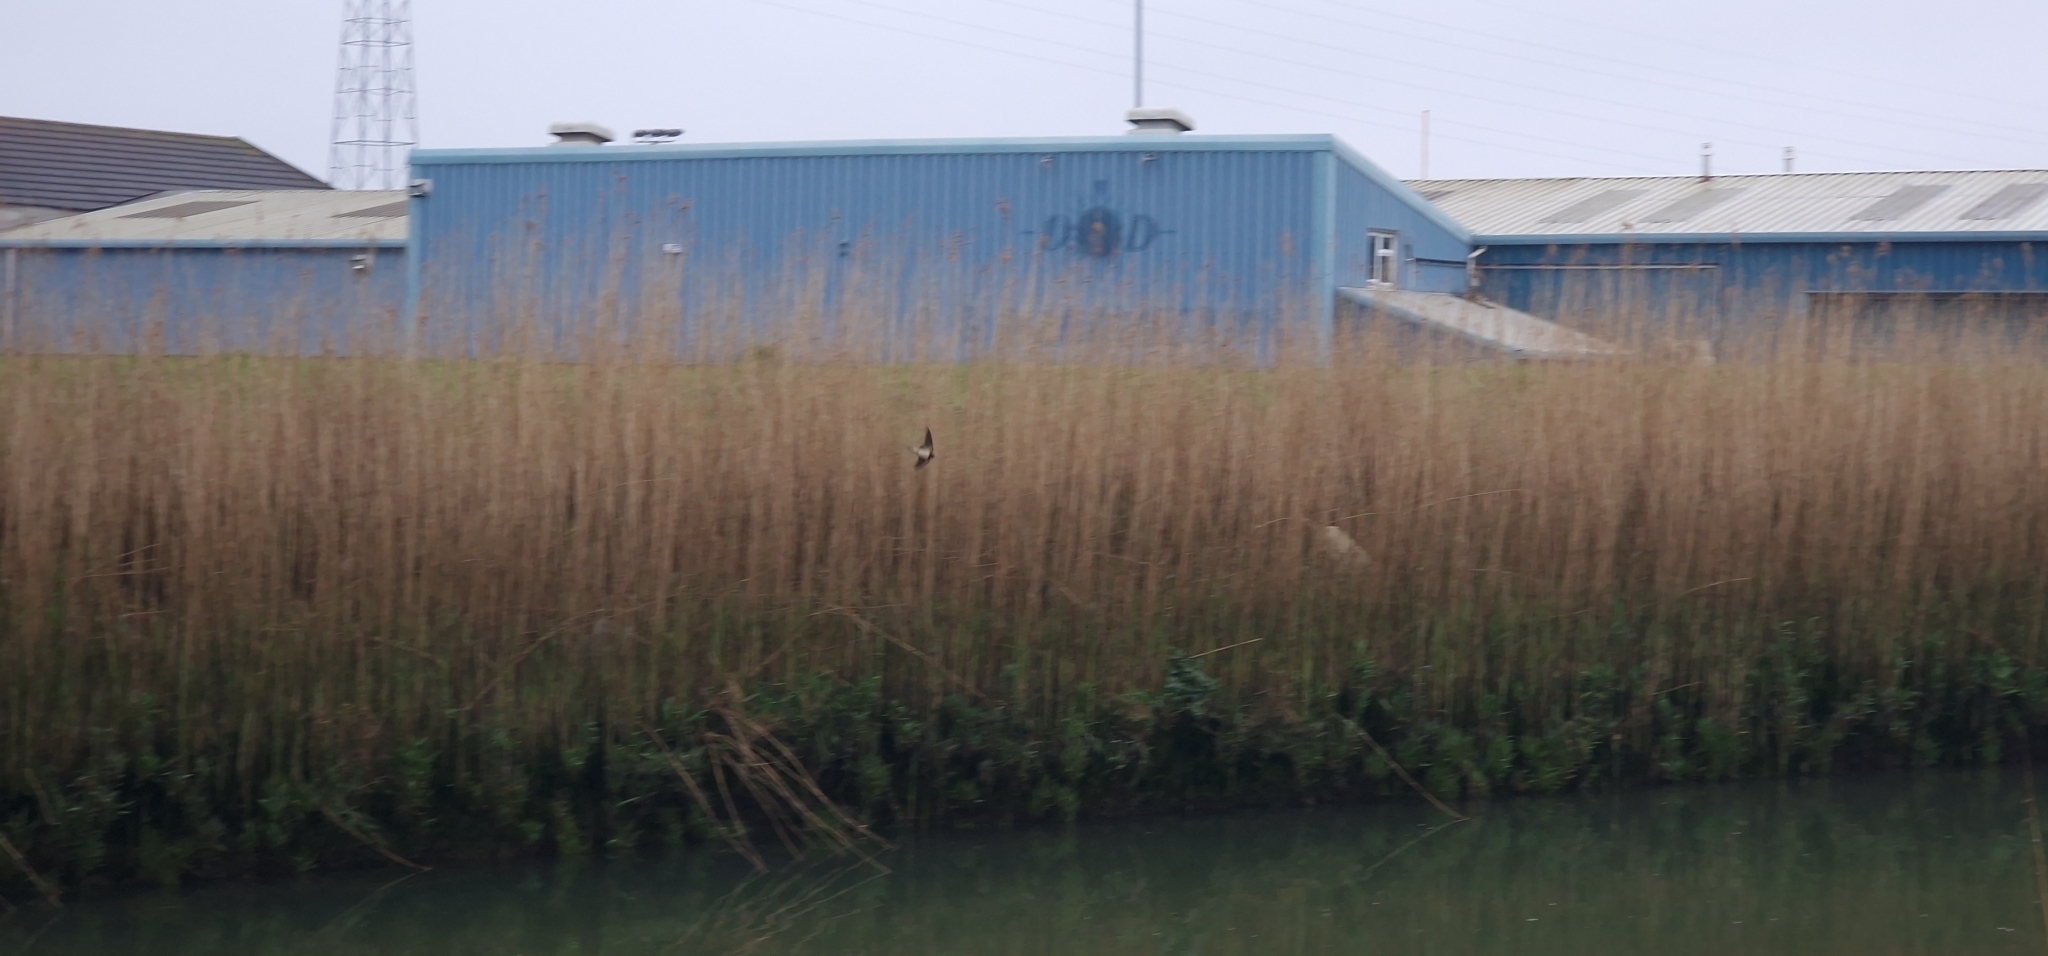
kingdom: Animalia
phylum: Chordata
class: Aves
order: Passeriformes
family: Hirundinidae
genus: Hirundo
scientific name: Hirundo rustica
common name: Barn swallow
